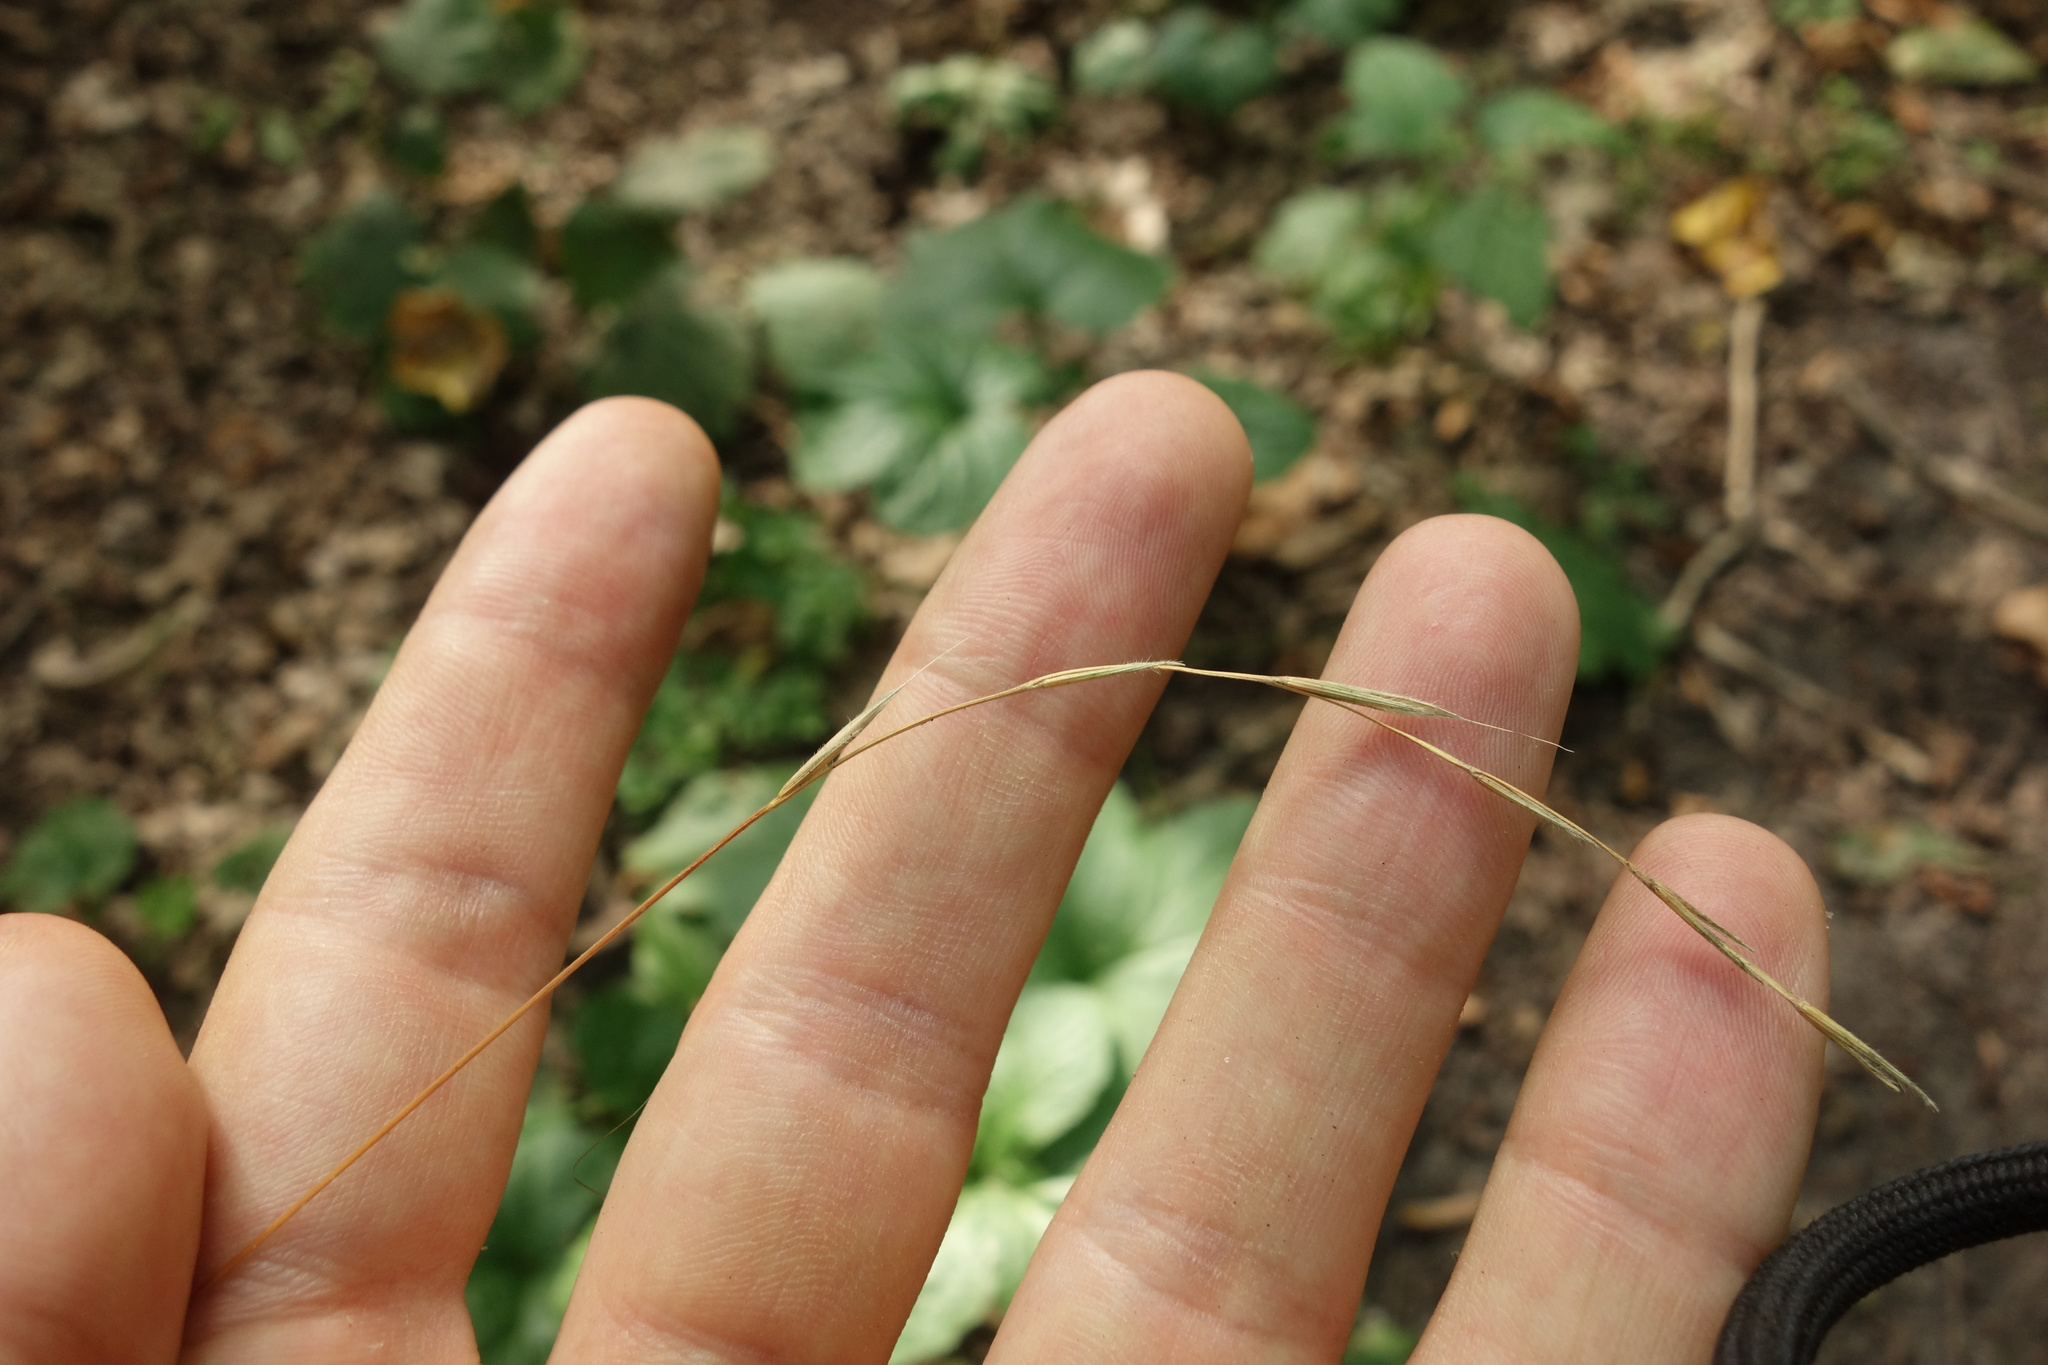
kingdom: Plantae
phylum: Tracheophyta
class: Liliopsida
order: Poales
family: Poaceae
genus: Brachypodium
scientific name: Brachypodium sylvaticum
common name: False-brome
